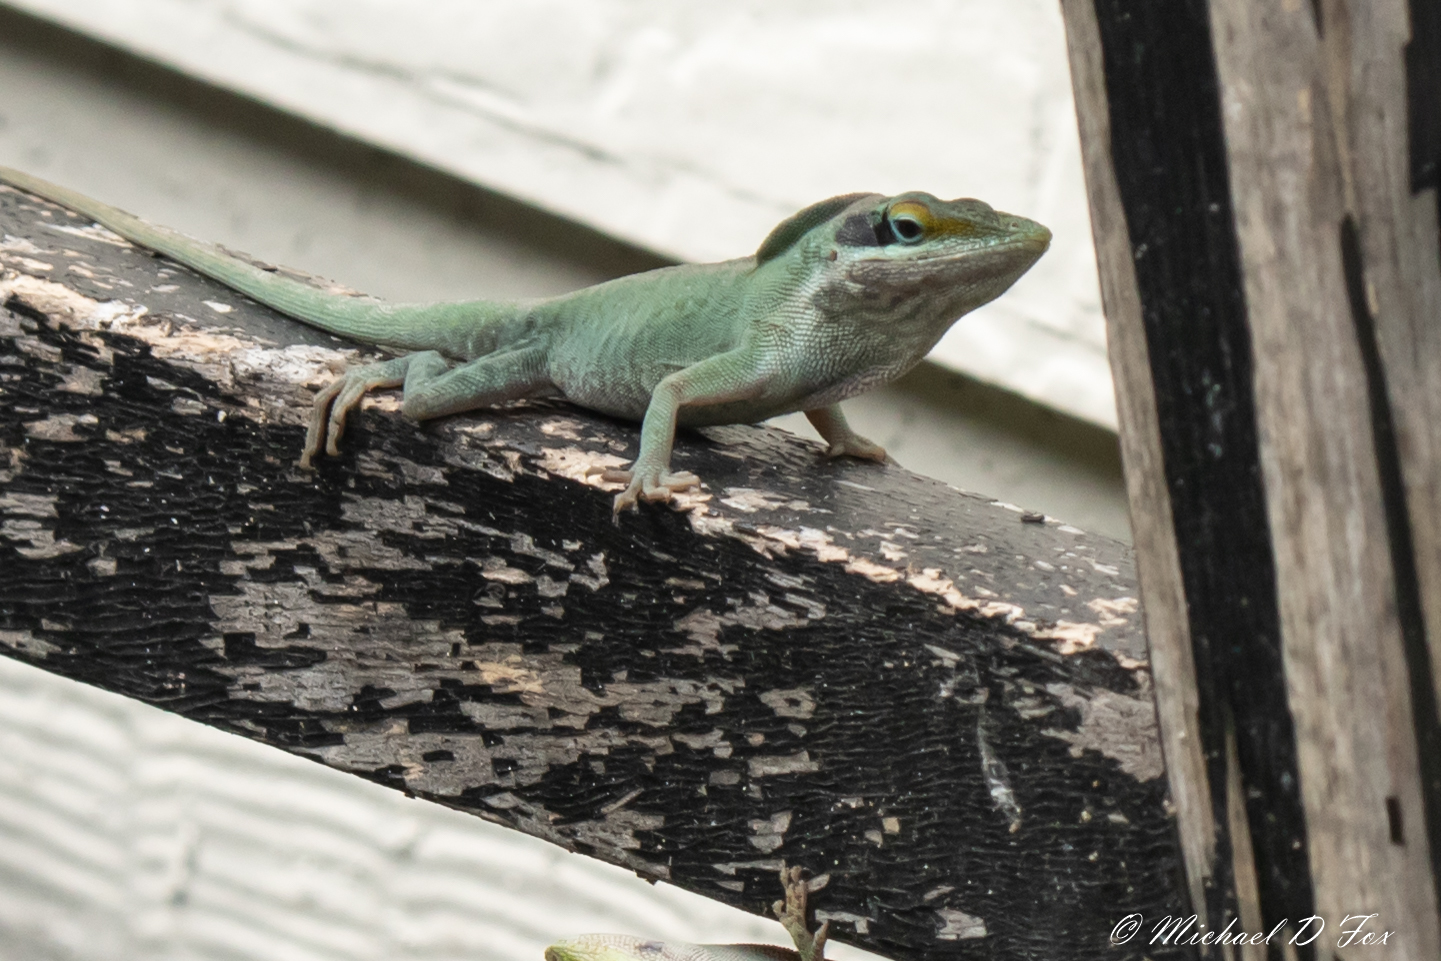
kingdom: Animalia
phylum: Chordata
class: Squamata
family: Dactyloidae
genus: Anolis
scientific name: Anolis carolinensis
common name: Green anole
